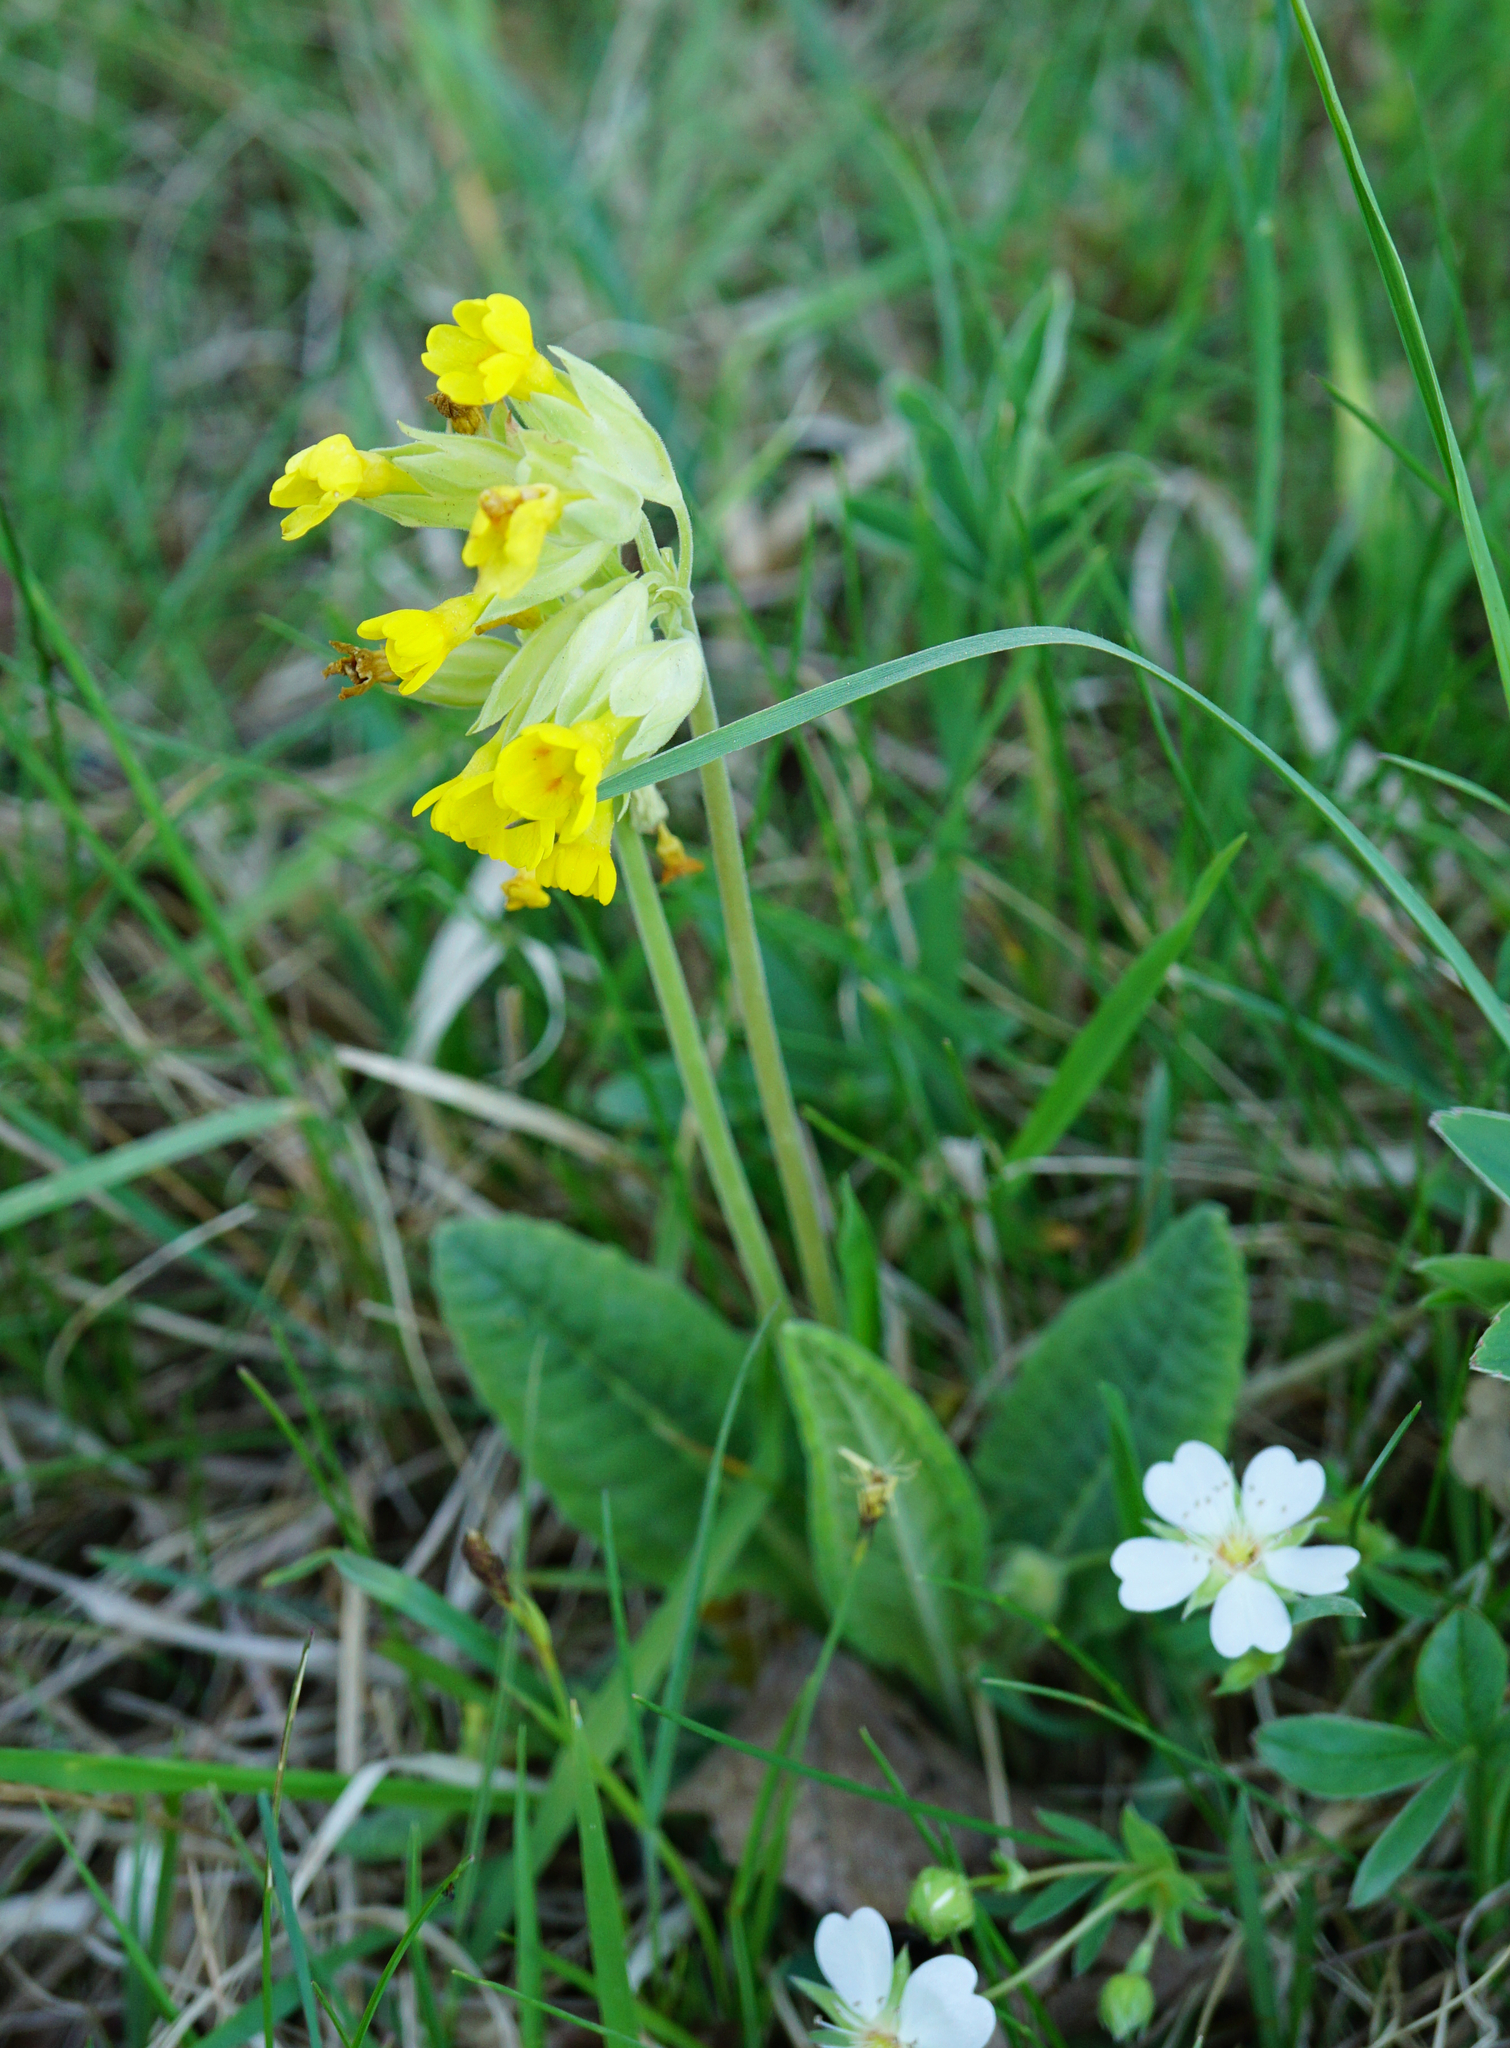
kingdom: Plantae
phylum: Tracheophyta
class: Magnoliopsida
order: Ericales
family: Primulaceae
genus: Primula
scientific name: Primula veris
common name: Cowslip
